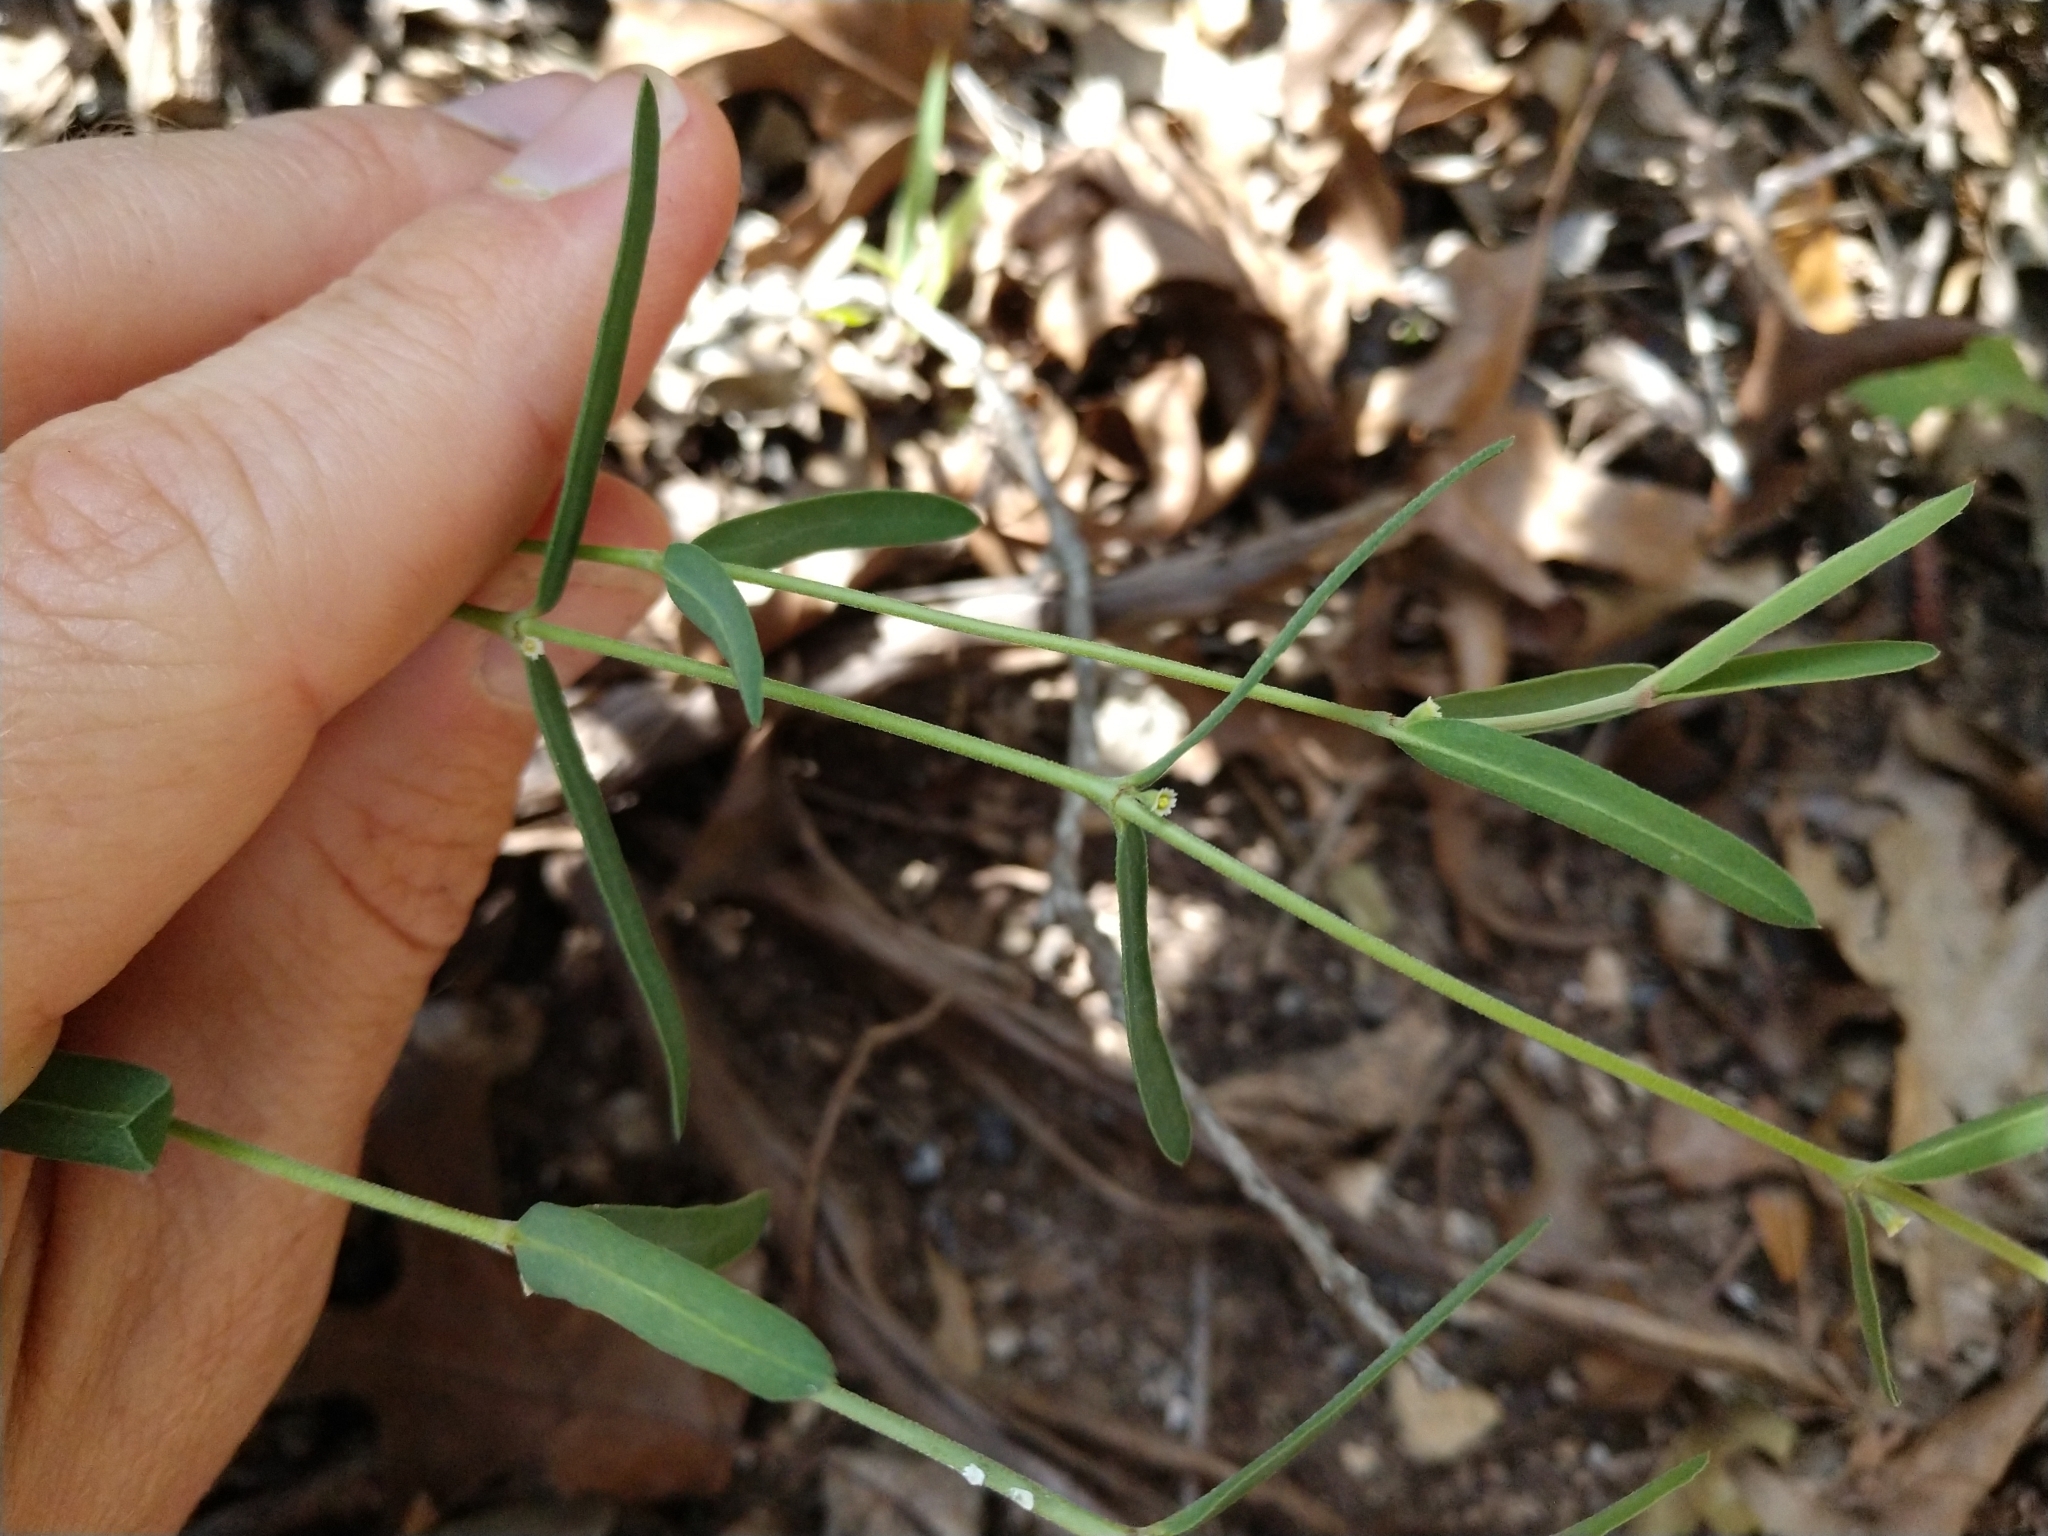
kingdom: Plantae
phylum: Tracheophyta
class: Magnoliopsida
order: Malpighiales
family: Euphorbiaceae
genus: Euphorbia
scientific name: Euphorbia angusta
